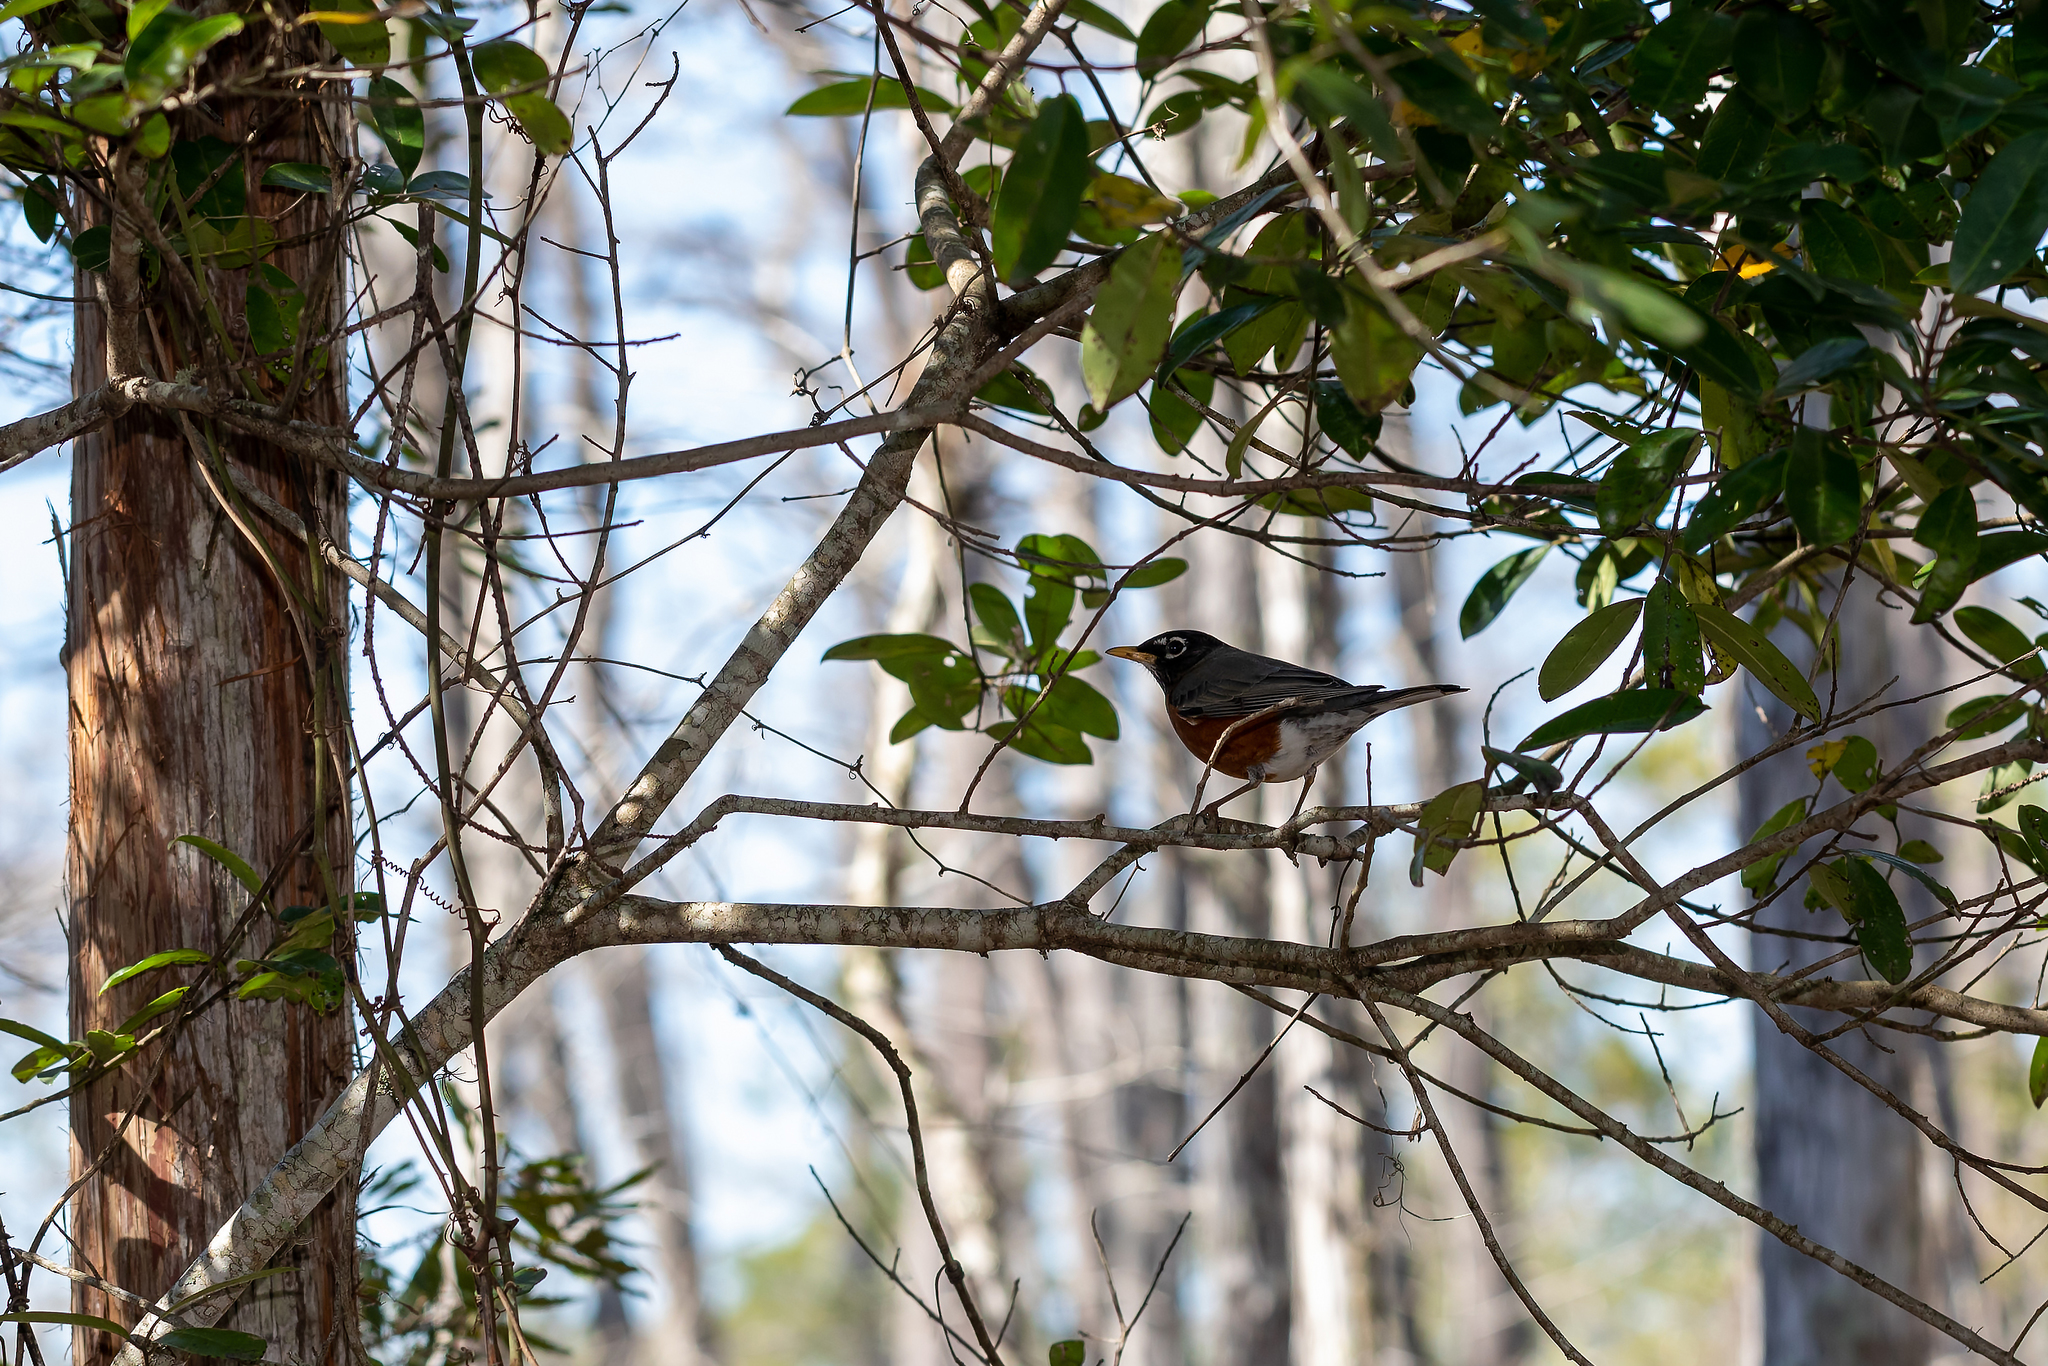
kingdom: Animalia
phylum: Chordata
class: Aves
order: Passeriformes
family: Turdidae
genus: Turdus
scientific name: Turdus migratorius
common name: American robin
